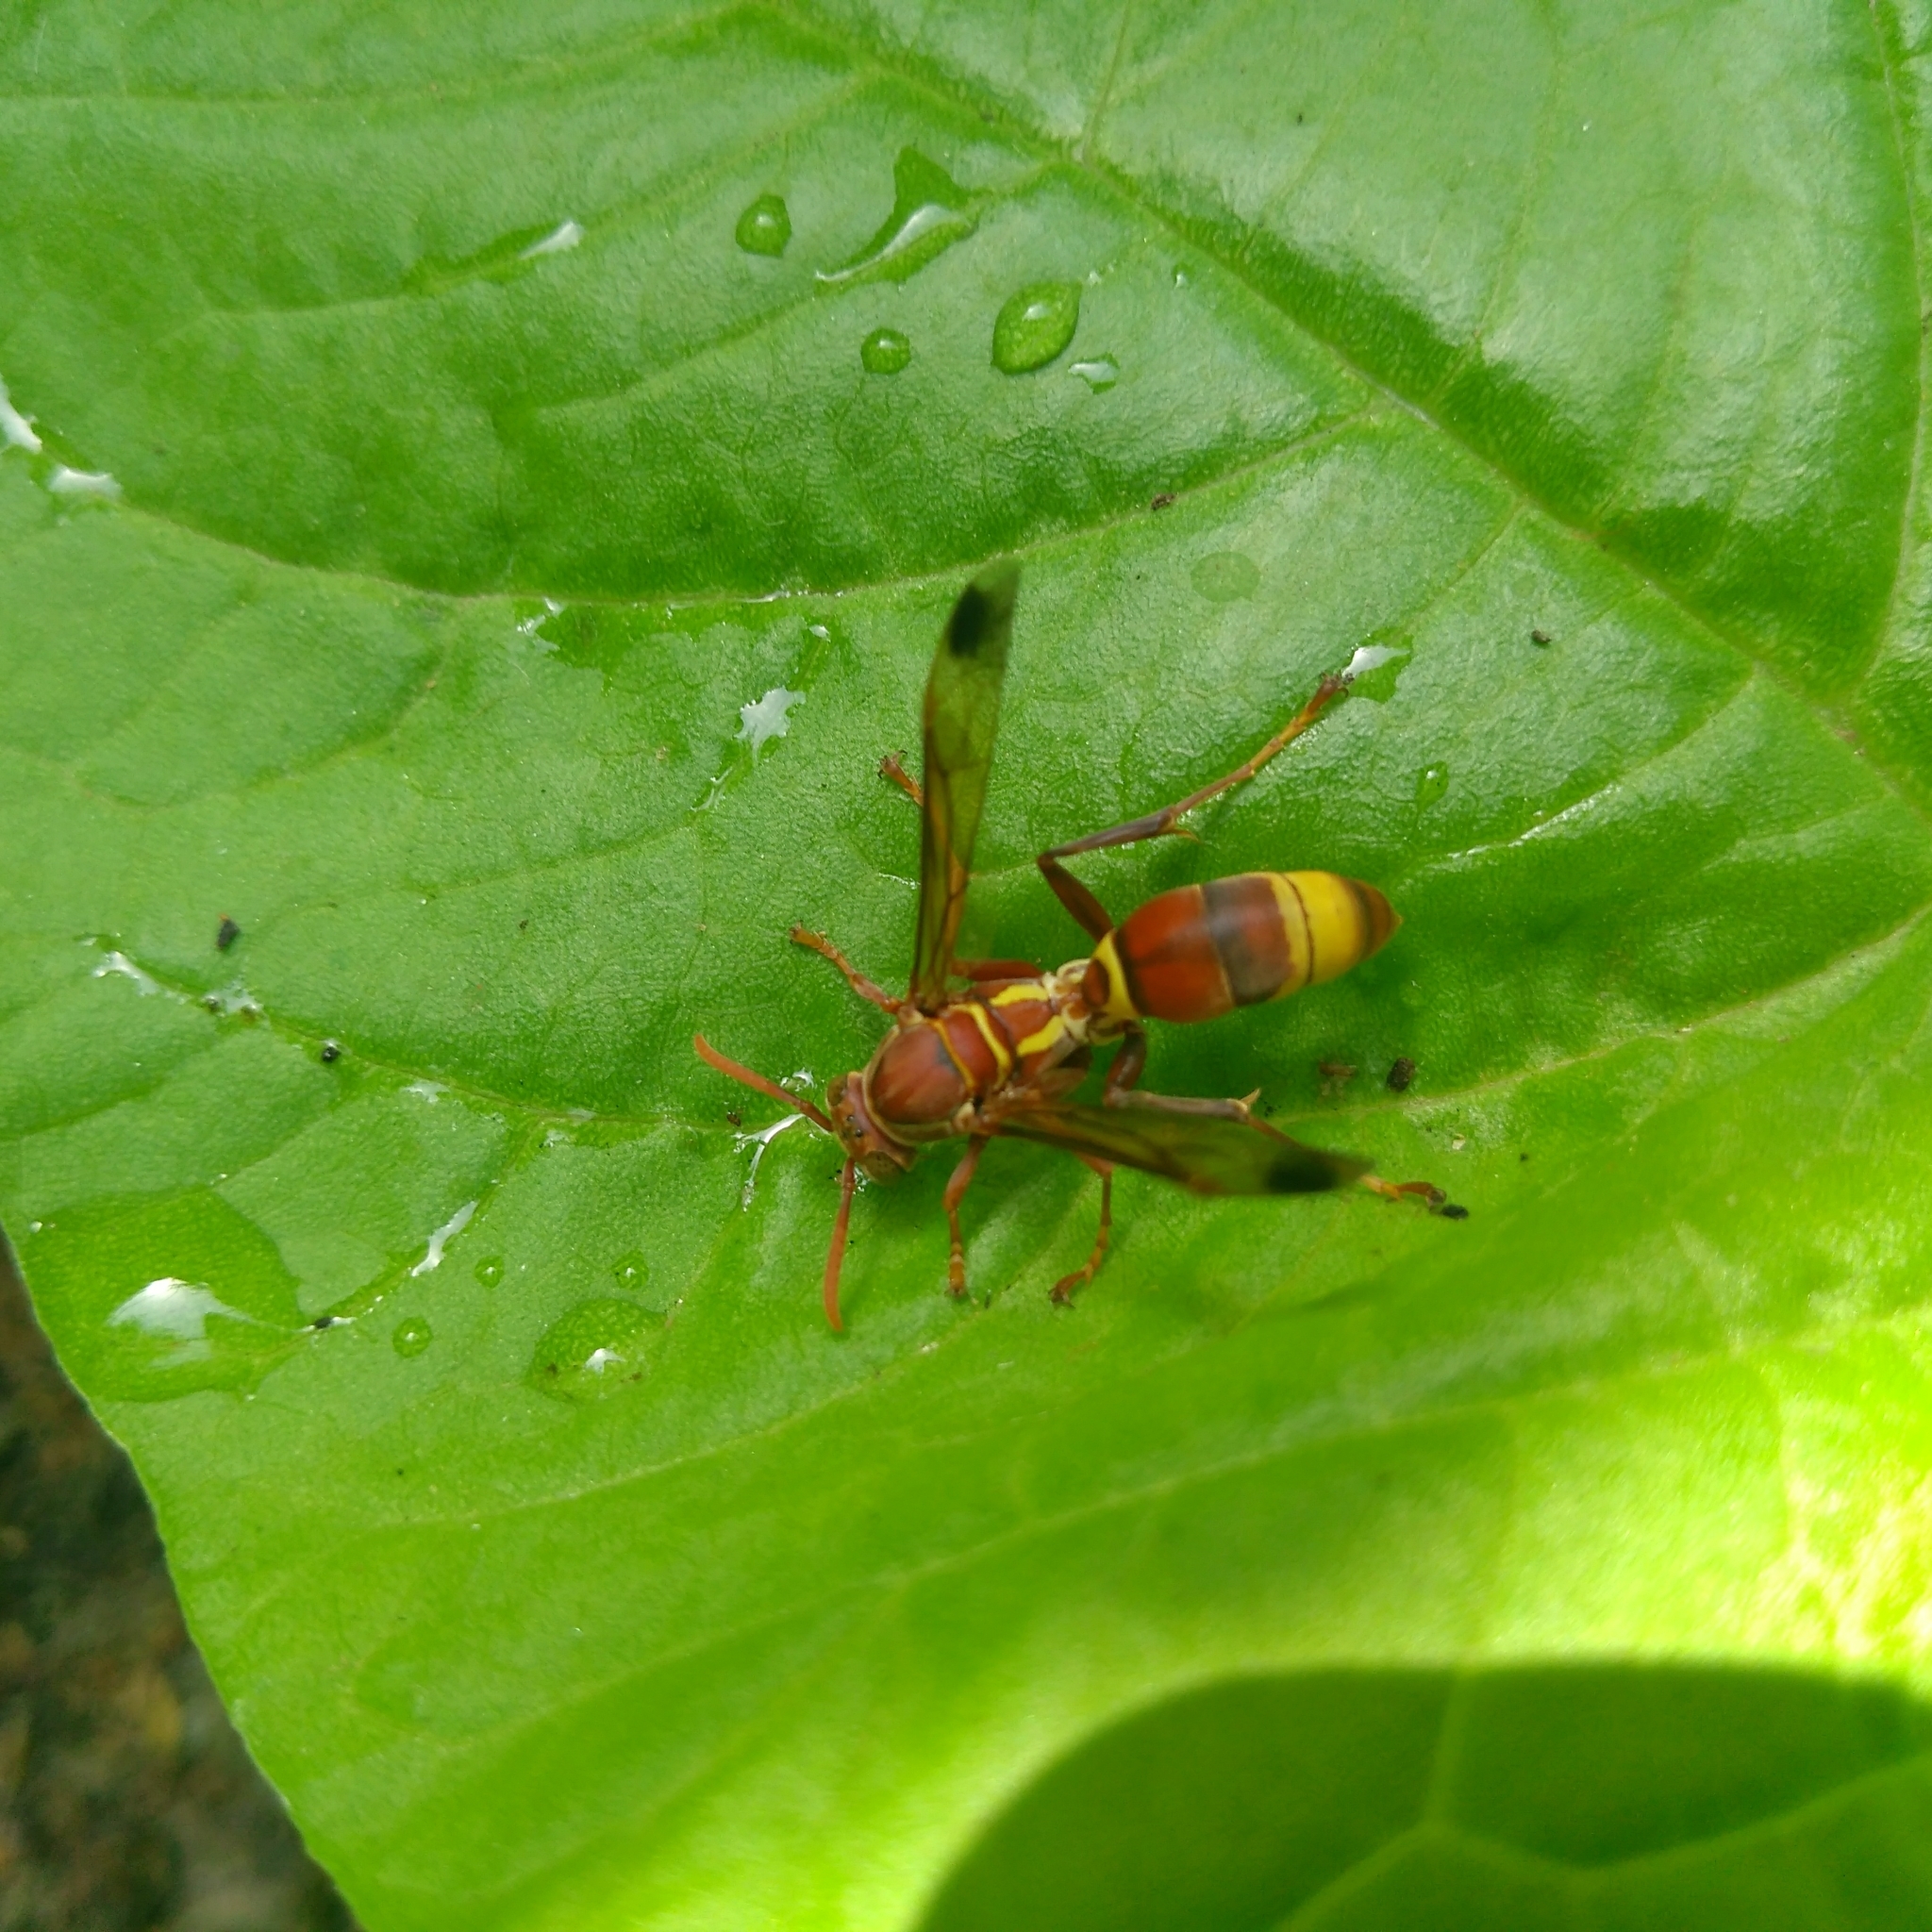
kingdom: Animalia
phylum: Arthropoda
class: Insecta
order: Hymenoptera
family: Eumenidae
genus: Polistes
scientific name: Polistes stigma
